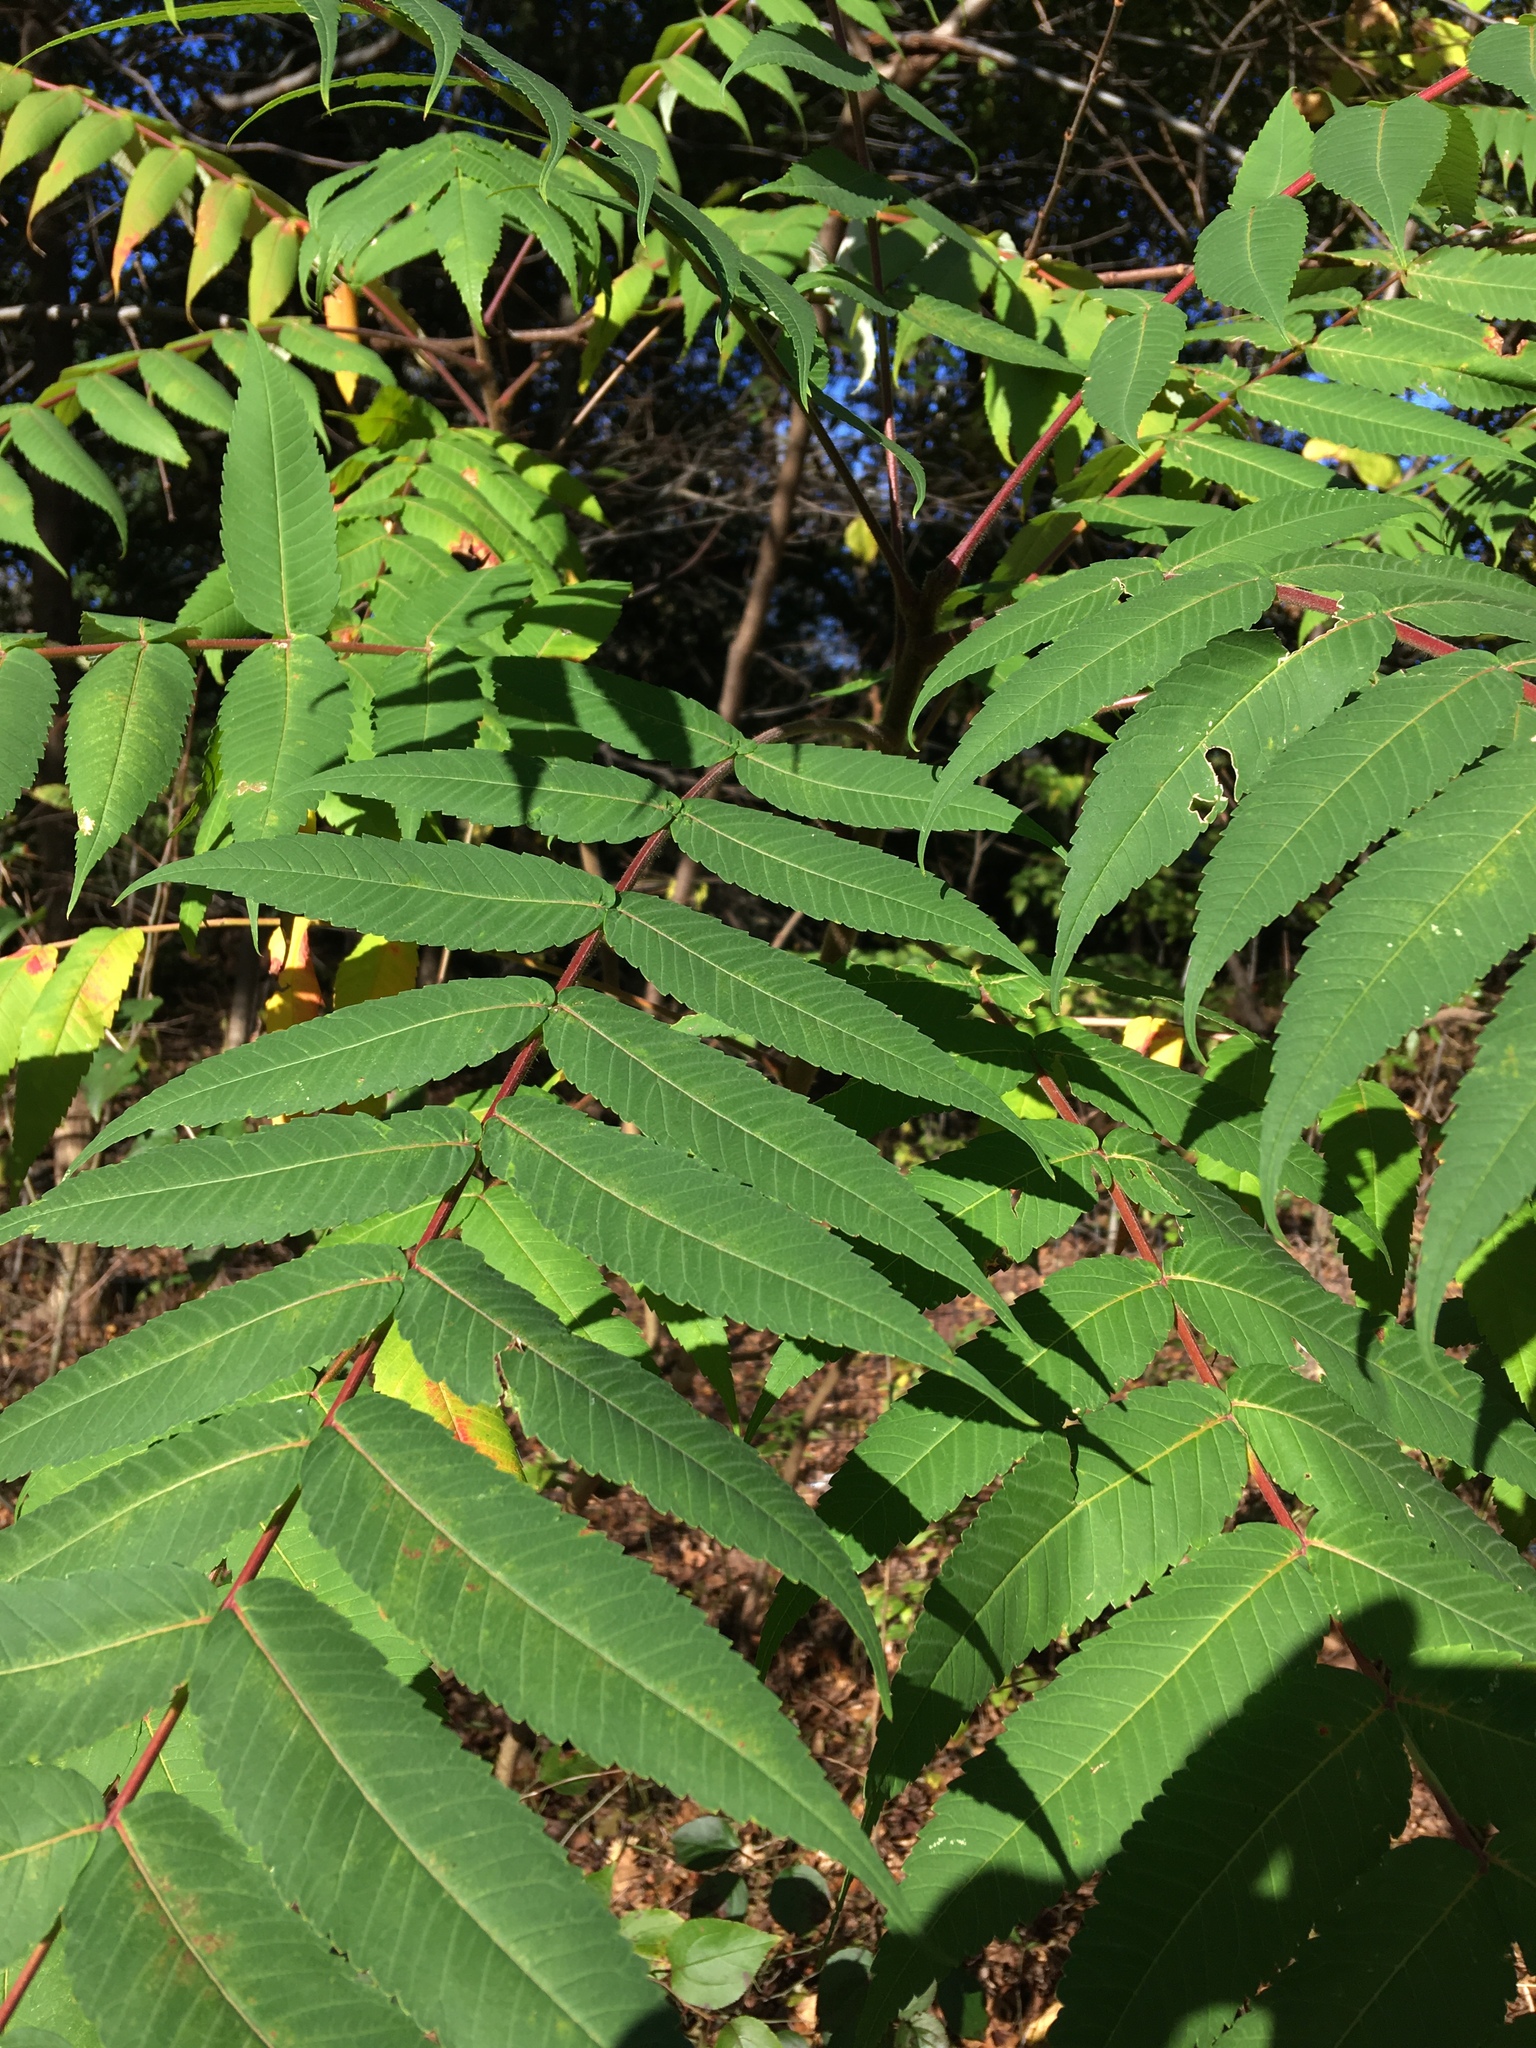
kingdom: Plantae
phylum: Tracheophyta
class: Magnoliopsida
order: Sapindales
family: Anacardiaceae
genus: Rhus
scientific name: Rhus typhina
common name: Staghorn sumac
